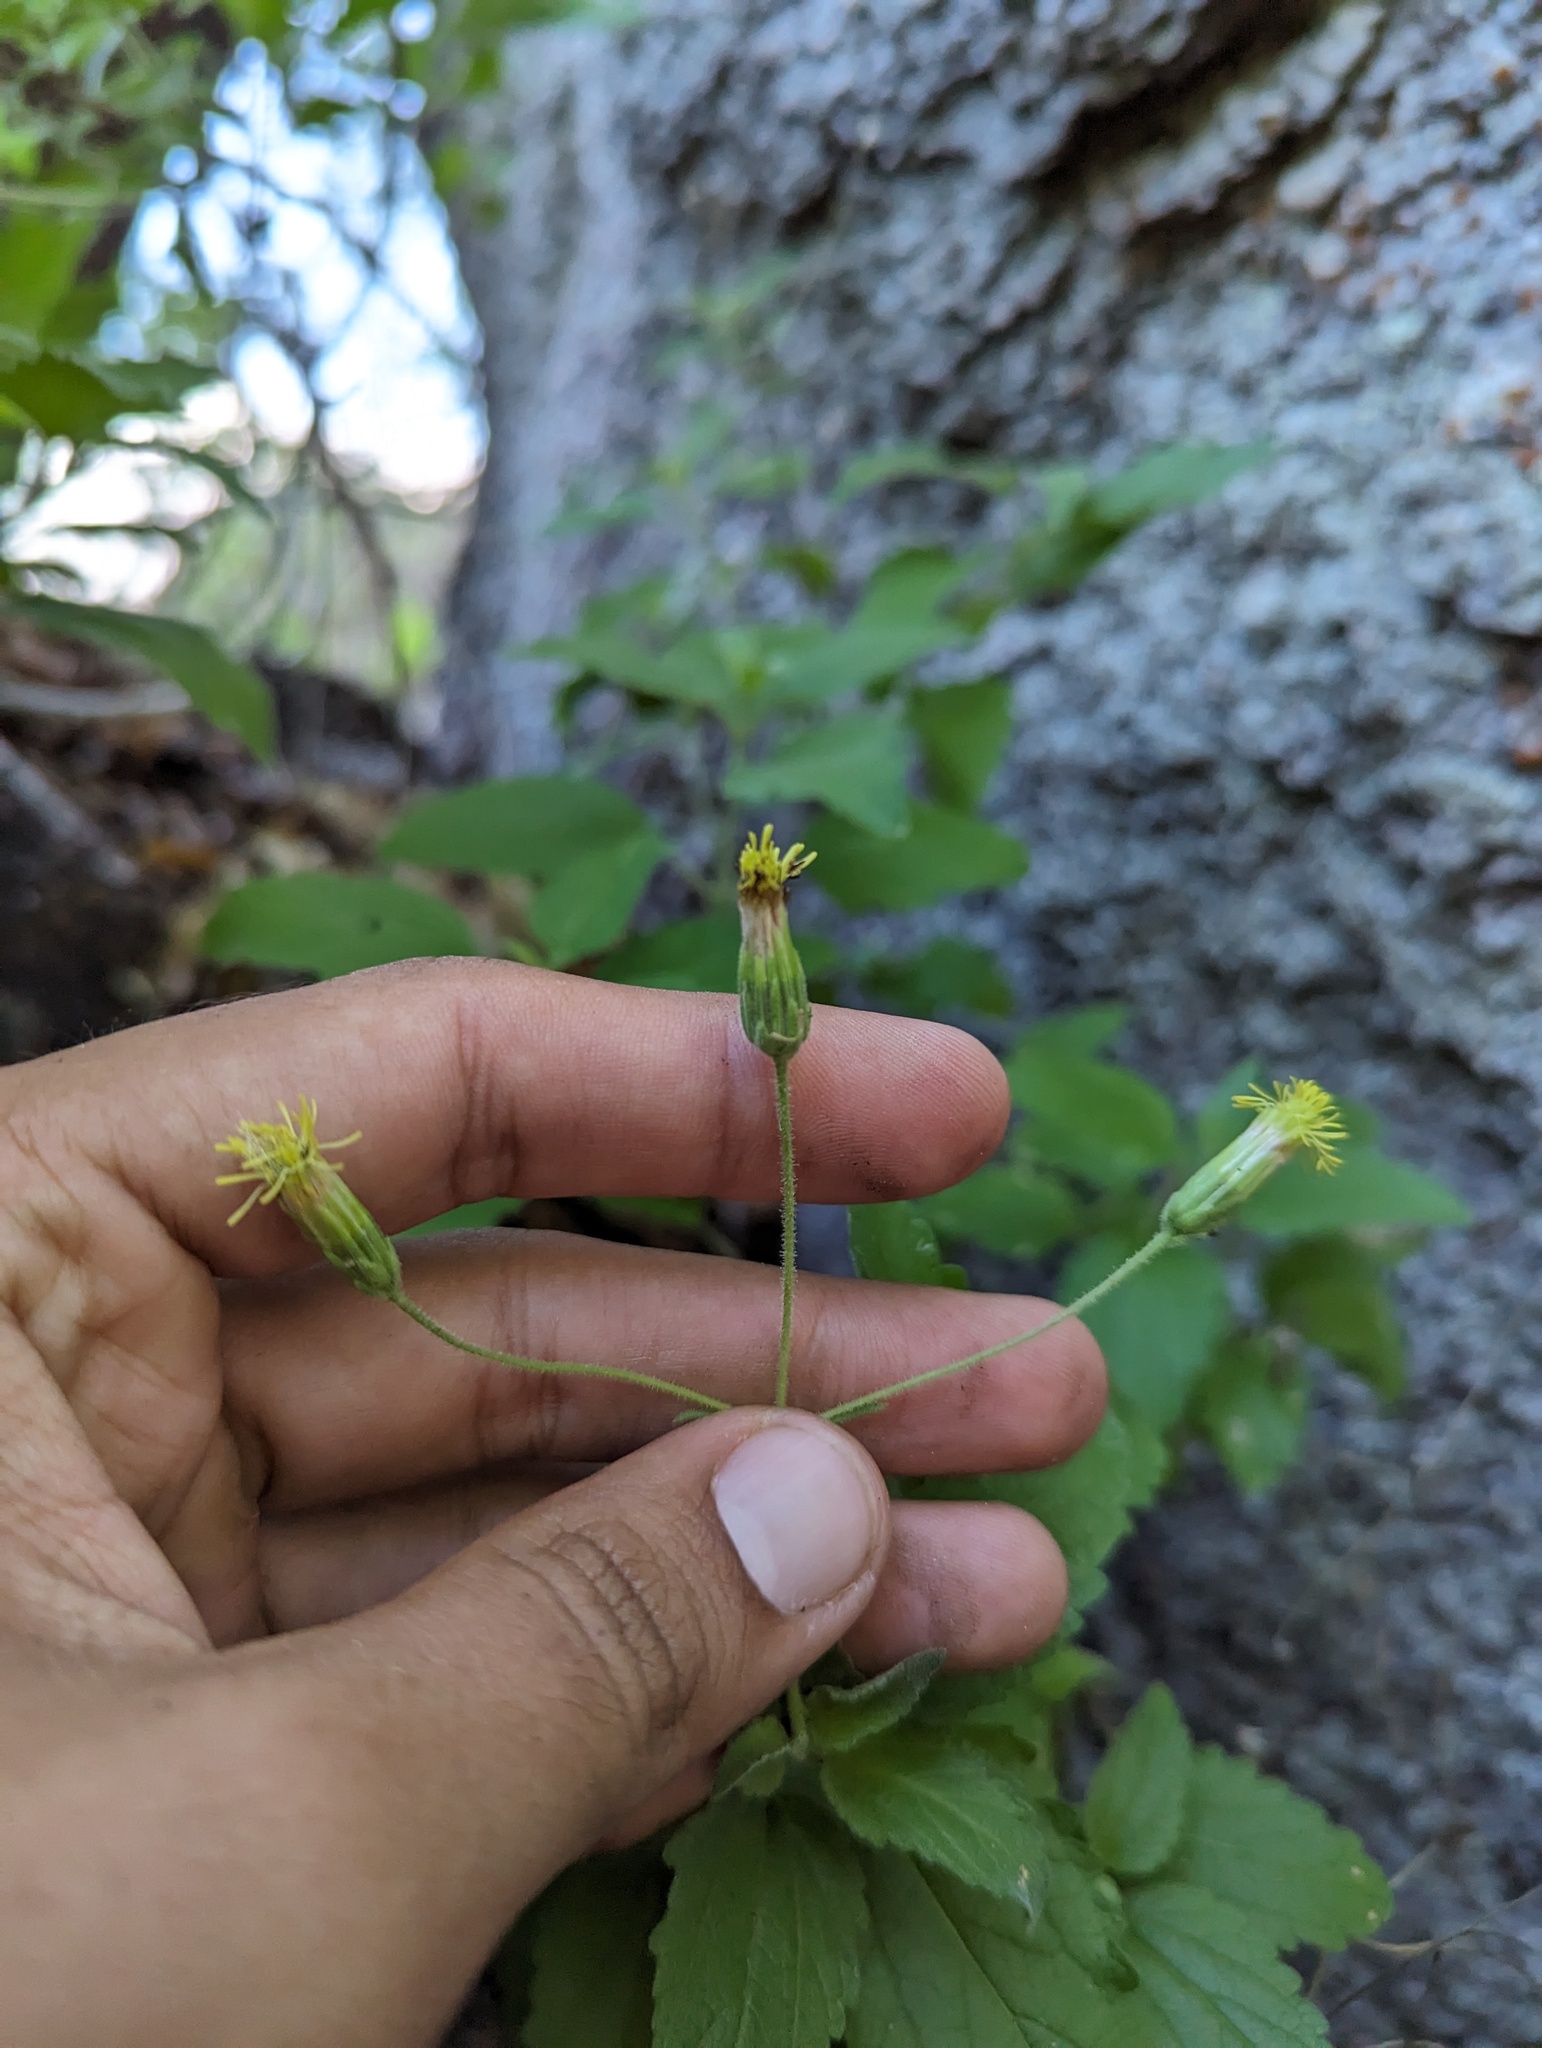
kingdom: Plantae
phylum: Tracheophyta
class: Magnoliopsida
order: Asterales
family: Asteraceae
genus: Brickellia
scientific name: Brickellia peninsularis
